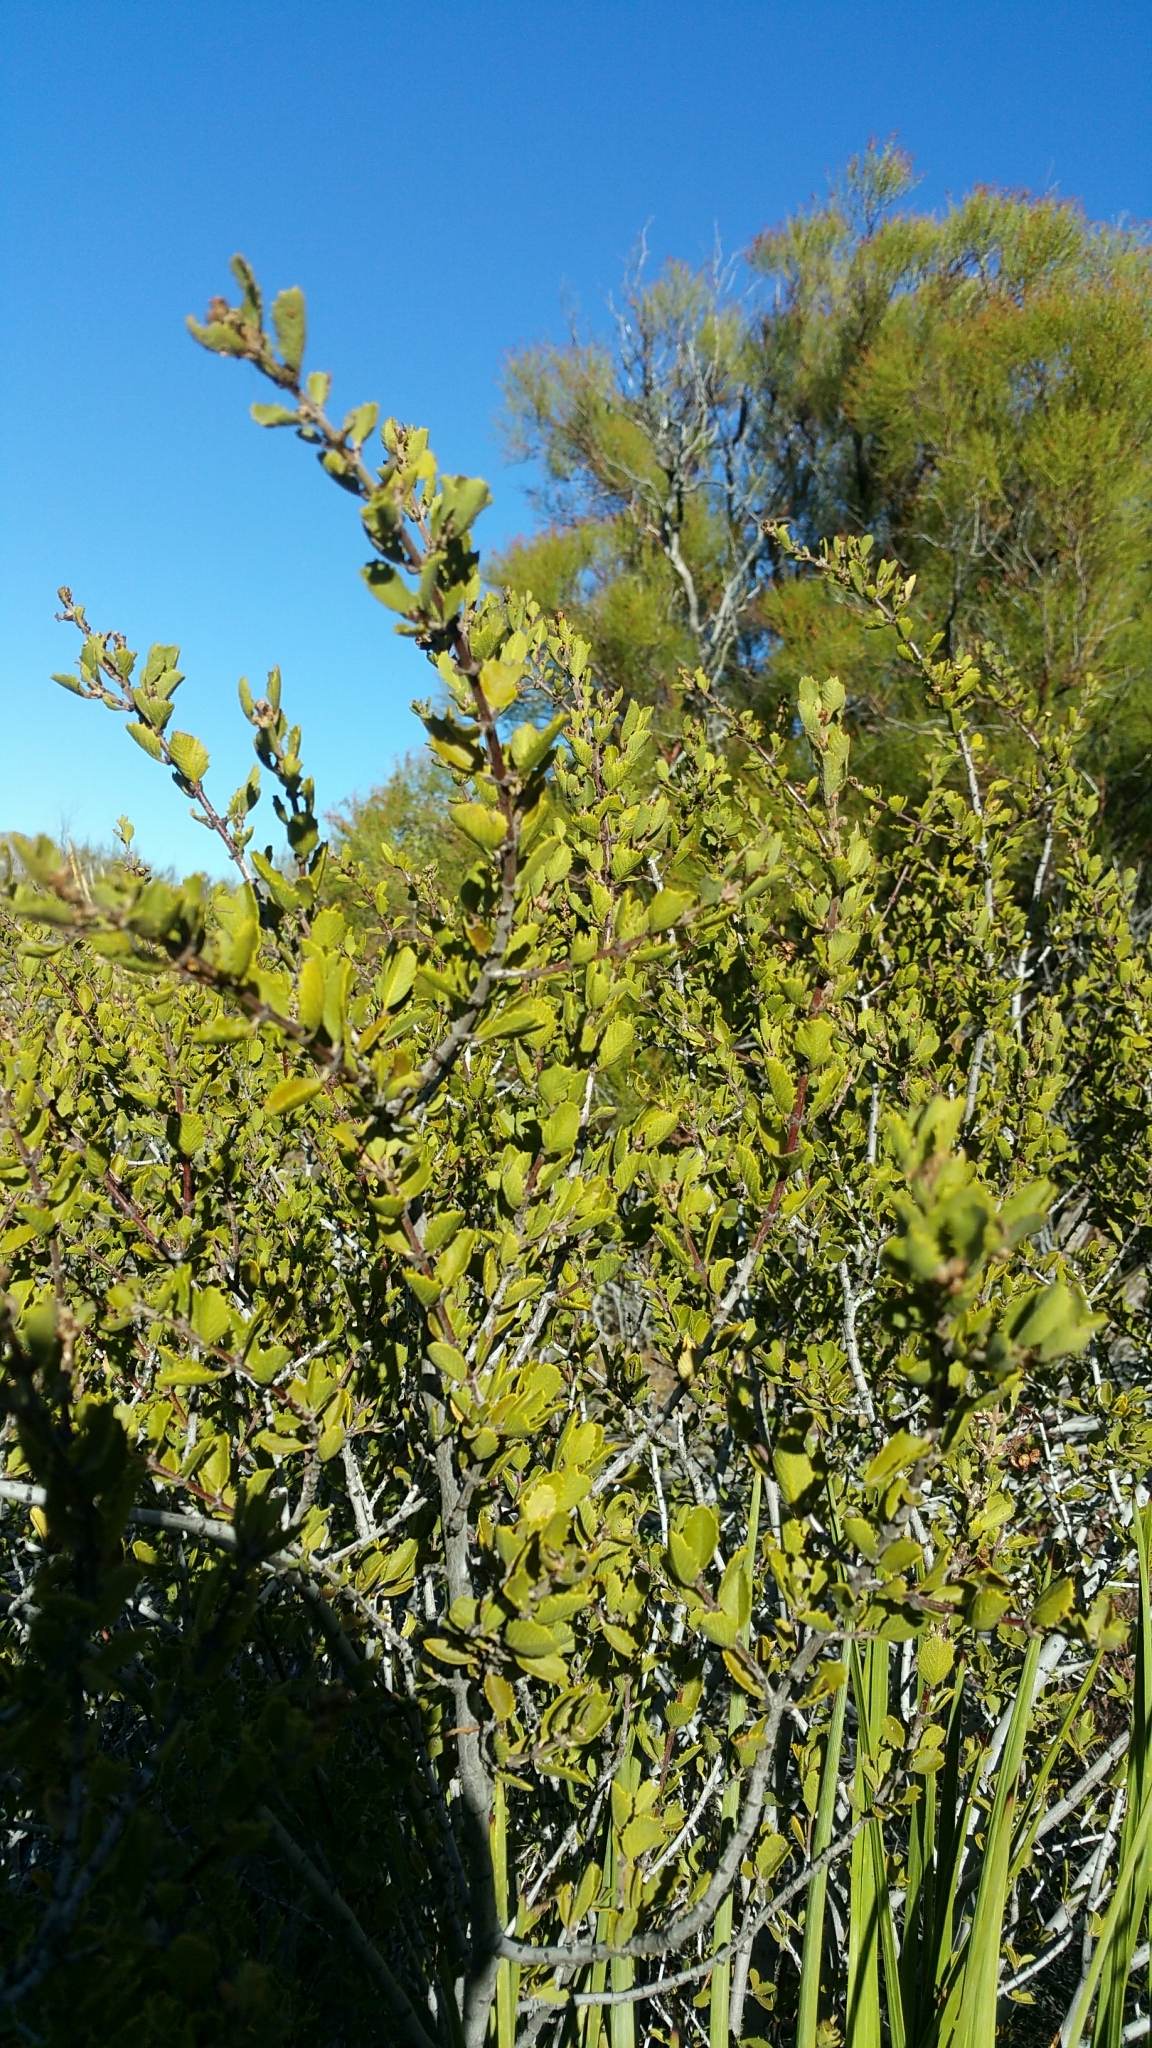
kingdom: Plantae
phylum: Tracheophyta
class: Magnoliopsida
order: Rosales
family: Rhamnaceae
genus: Ceanothus
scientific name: Ceanothus perplexans
